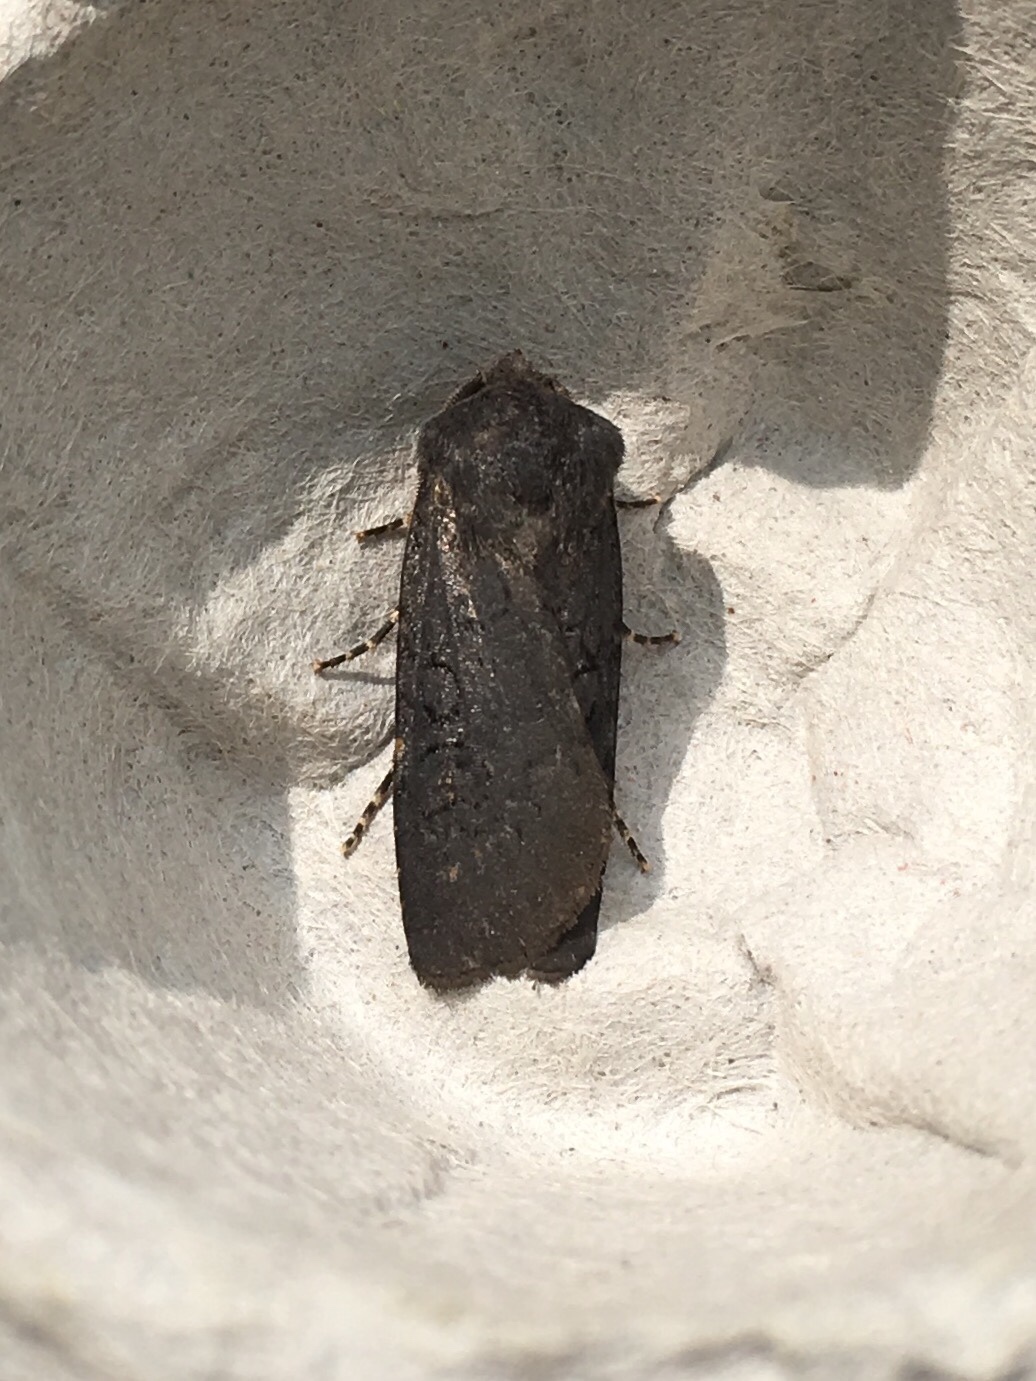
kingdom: Animalia
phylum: Arthropoda
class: Insecta
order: Lepidoptera
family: Noctuidae
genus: Euxoa
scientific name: Euxoa velleripennis
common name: Fleece-winged dart
